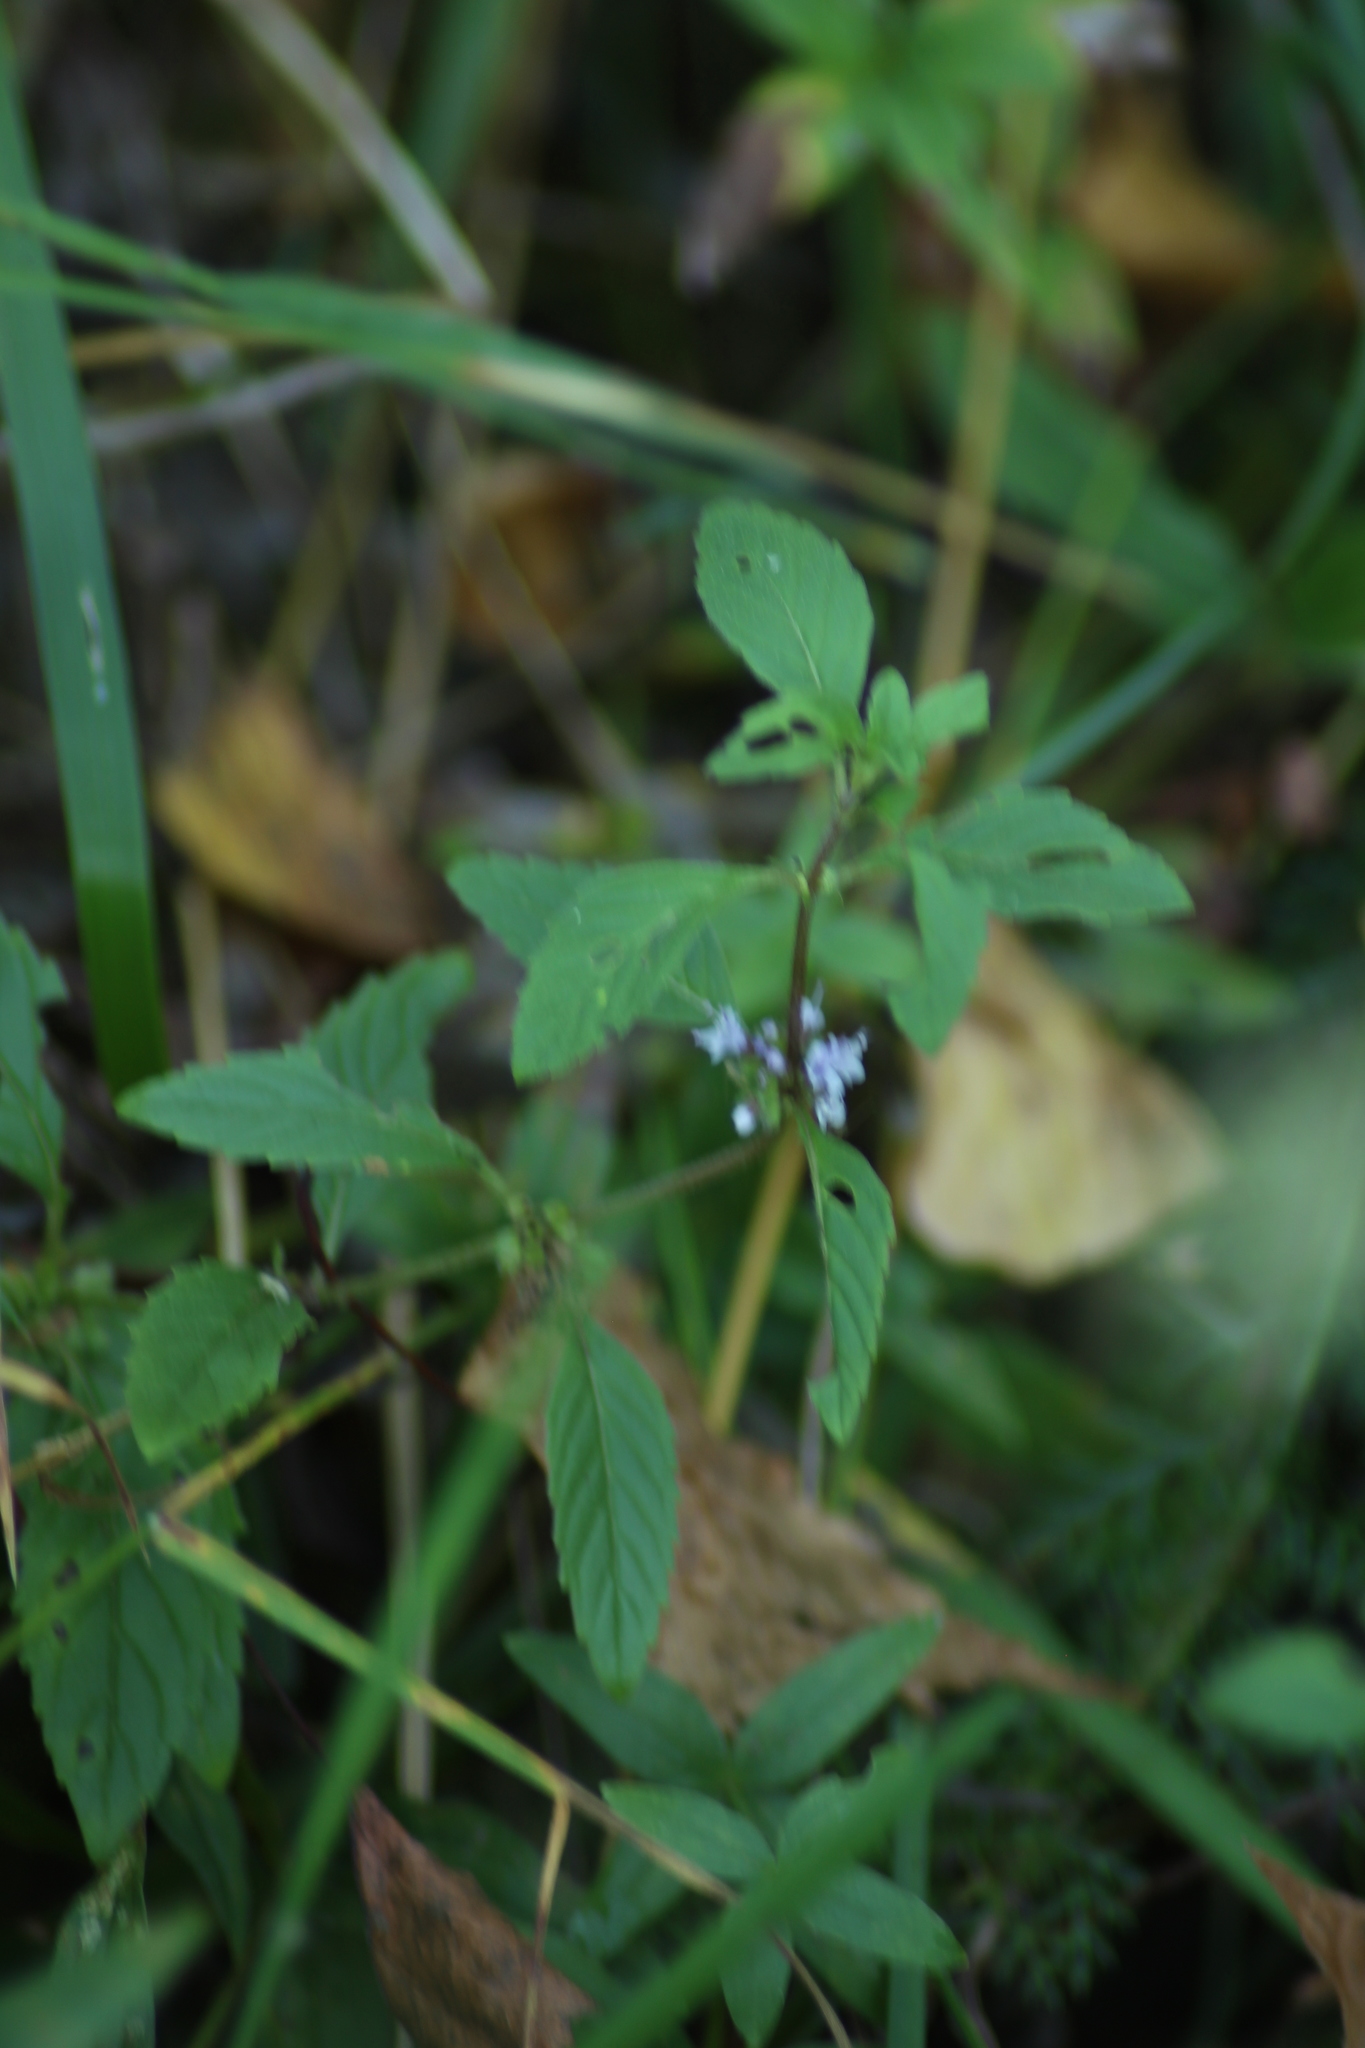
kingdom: Plantae
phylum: Tracheophyta
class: Magnoliopsida
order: Lamiales
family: Lamiaceae
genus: Mentha
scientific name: Mentha arvensis
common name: Corn mint
